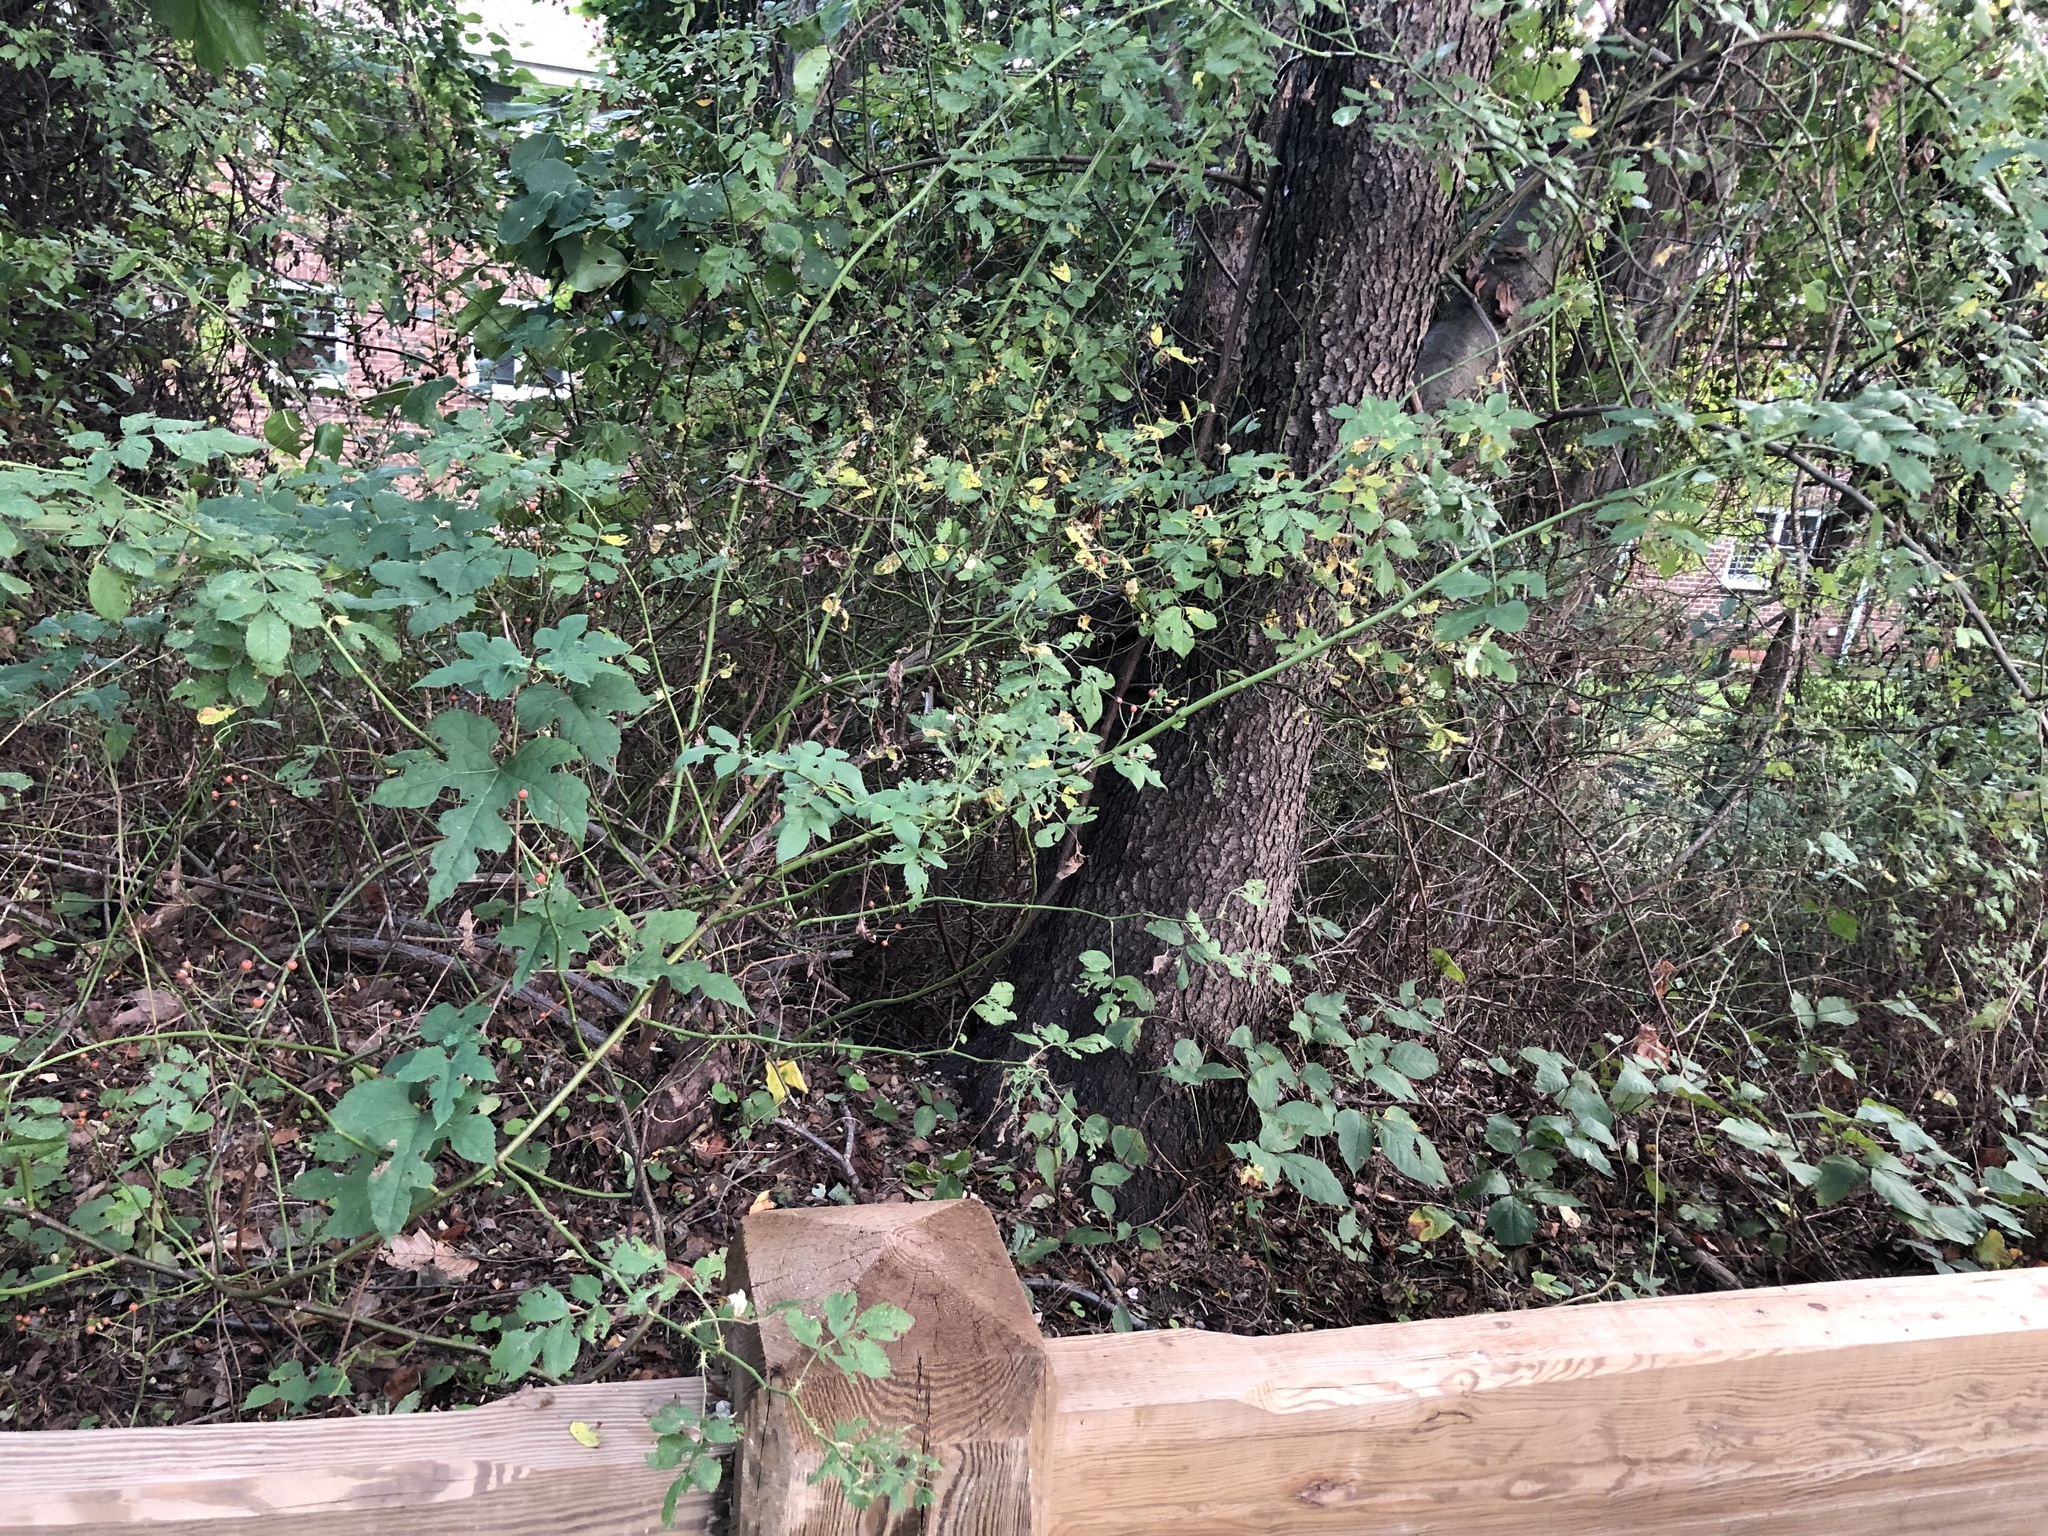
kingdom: Plantae
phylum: Tracheophyta
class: Magnoliopsida
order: Rosales
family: Rosaceae
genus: Rosa
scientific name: Rosa multiflora
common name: Multiflora rose
